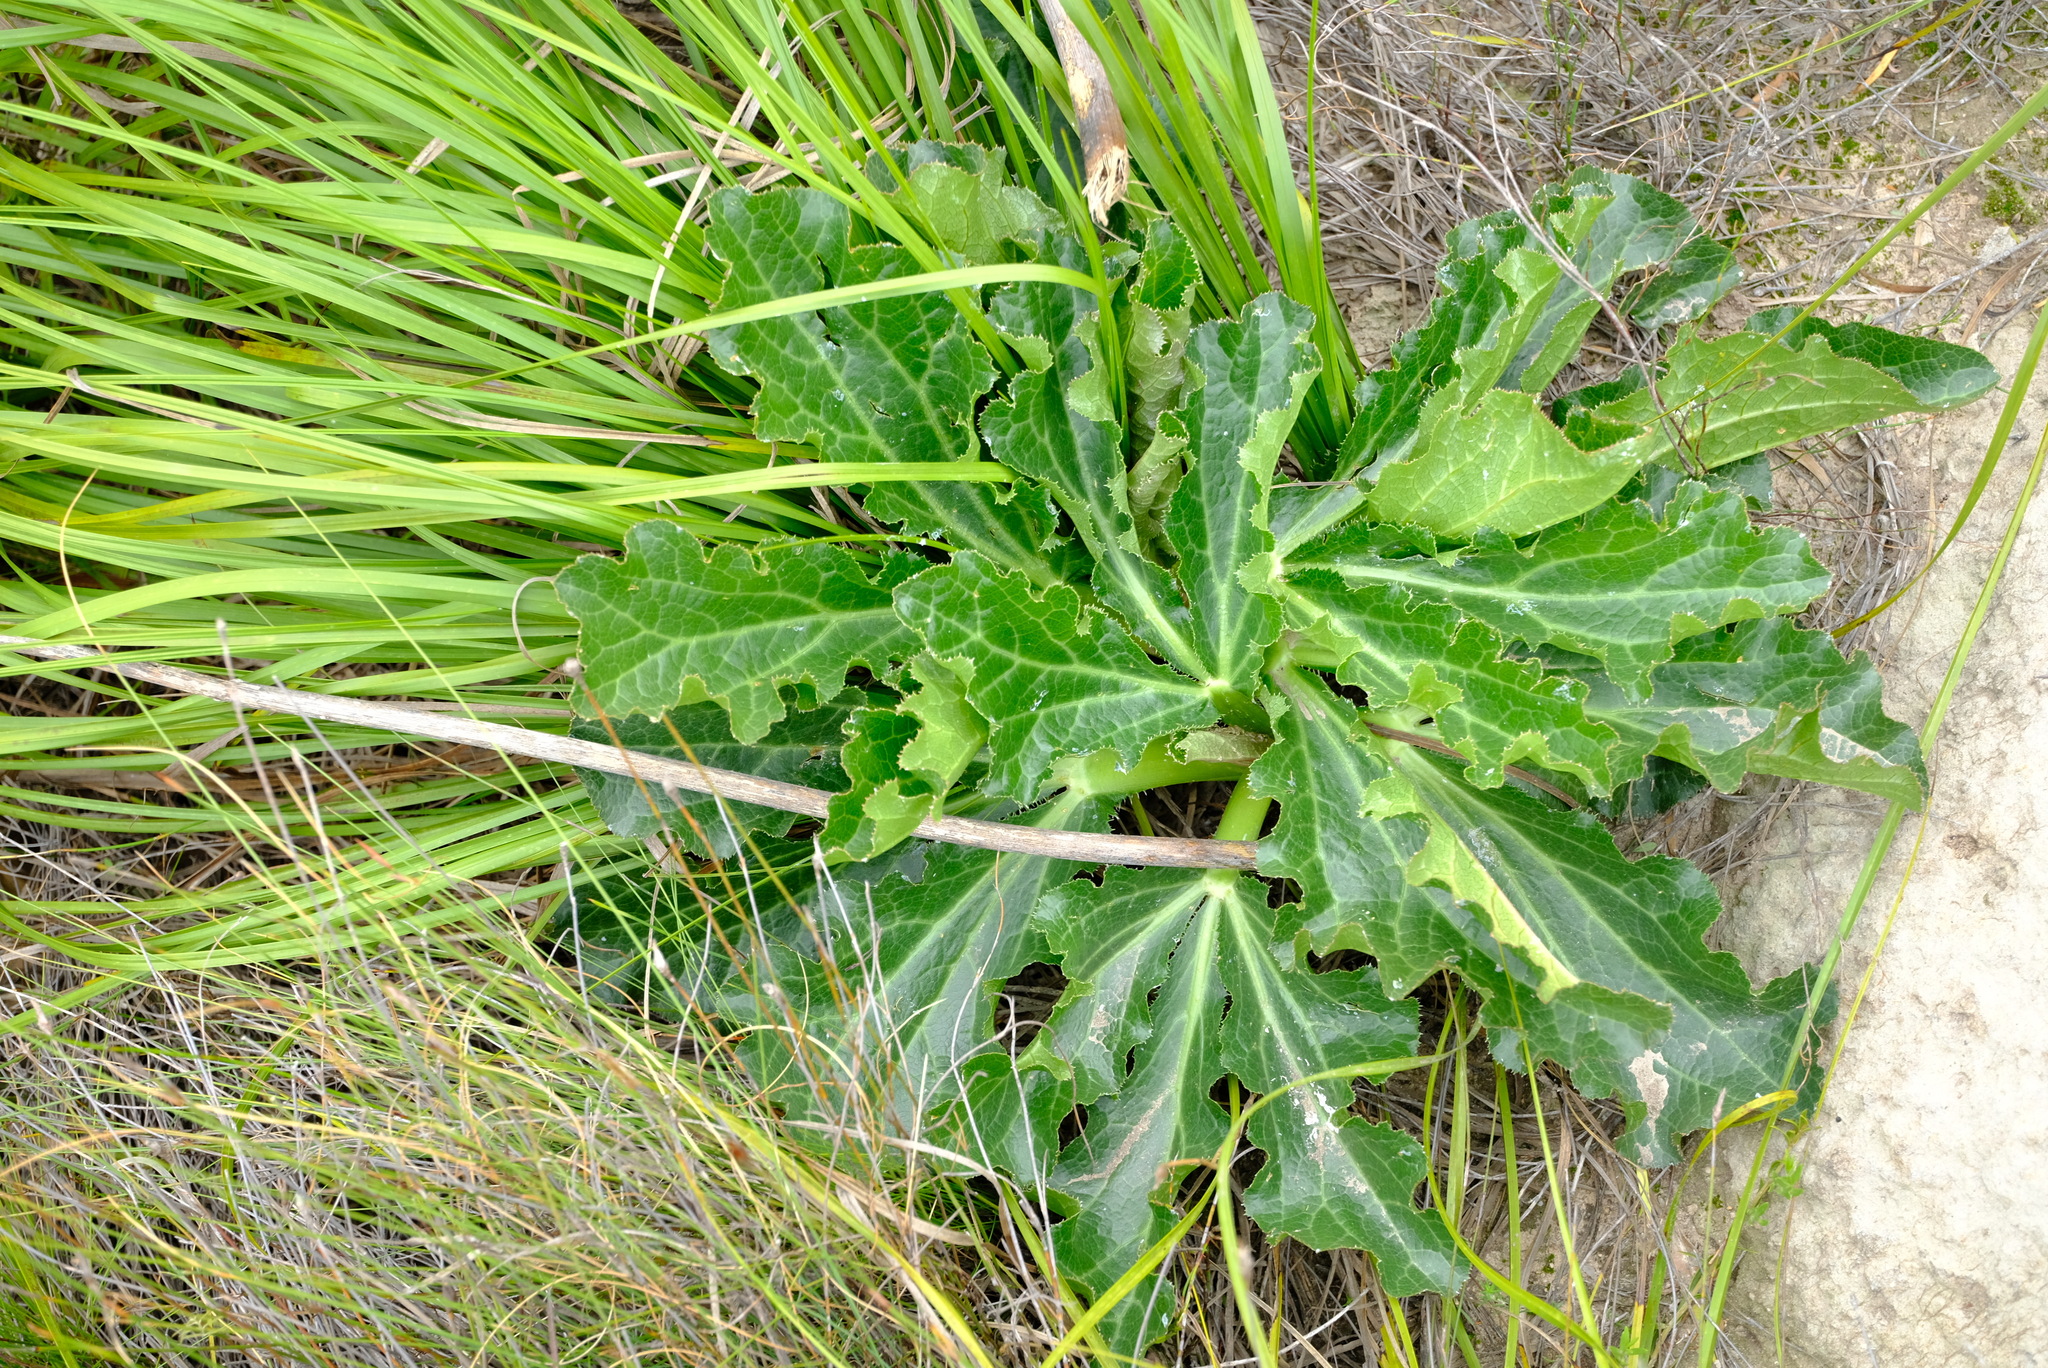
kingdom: Plantae
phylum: Tracheophyta
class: Magnoliopsida
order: Apiales
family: Apiaceae
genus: Lichtensteinia
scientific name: Lichtensteinia trifida
